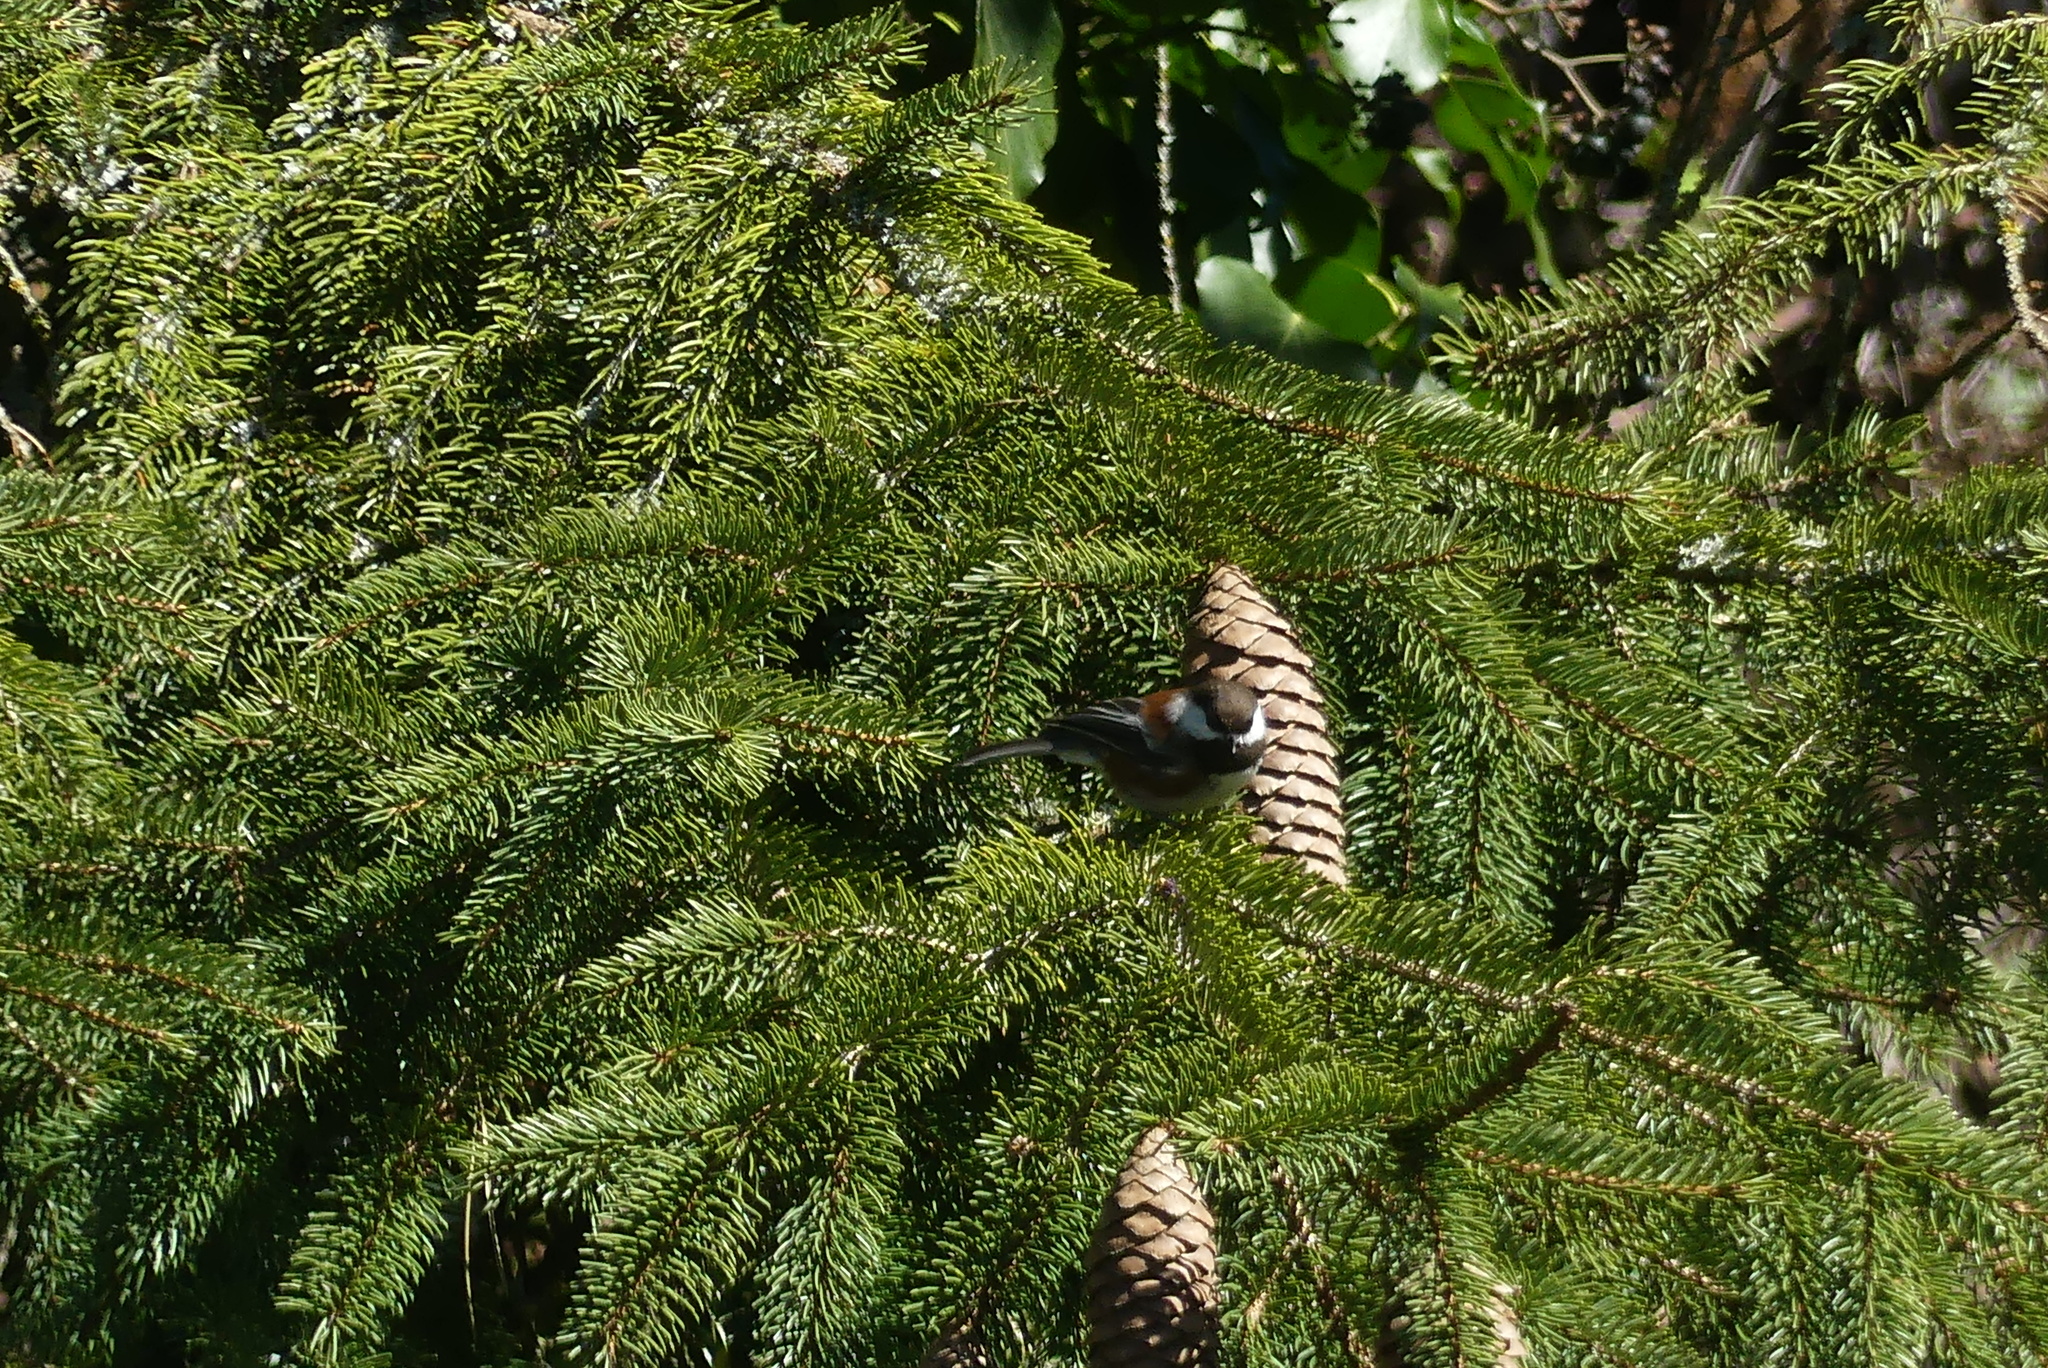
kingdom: Animalia
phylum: Chordata
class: Aves
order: Passeriformes
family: Paridae
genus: Poecile
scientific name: Poecile rufescens
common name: Chestnut-backed chickadee
